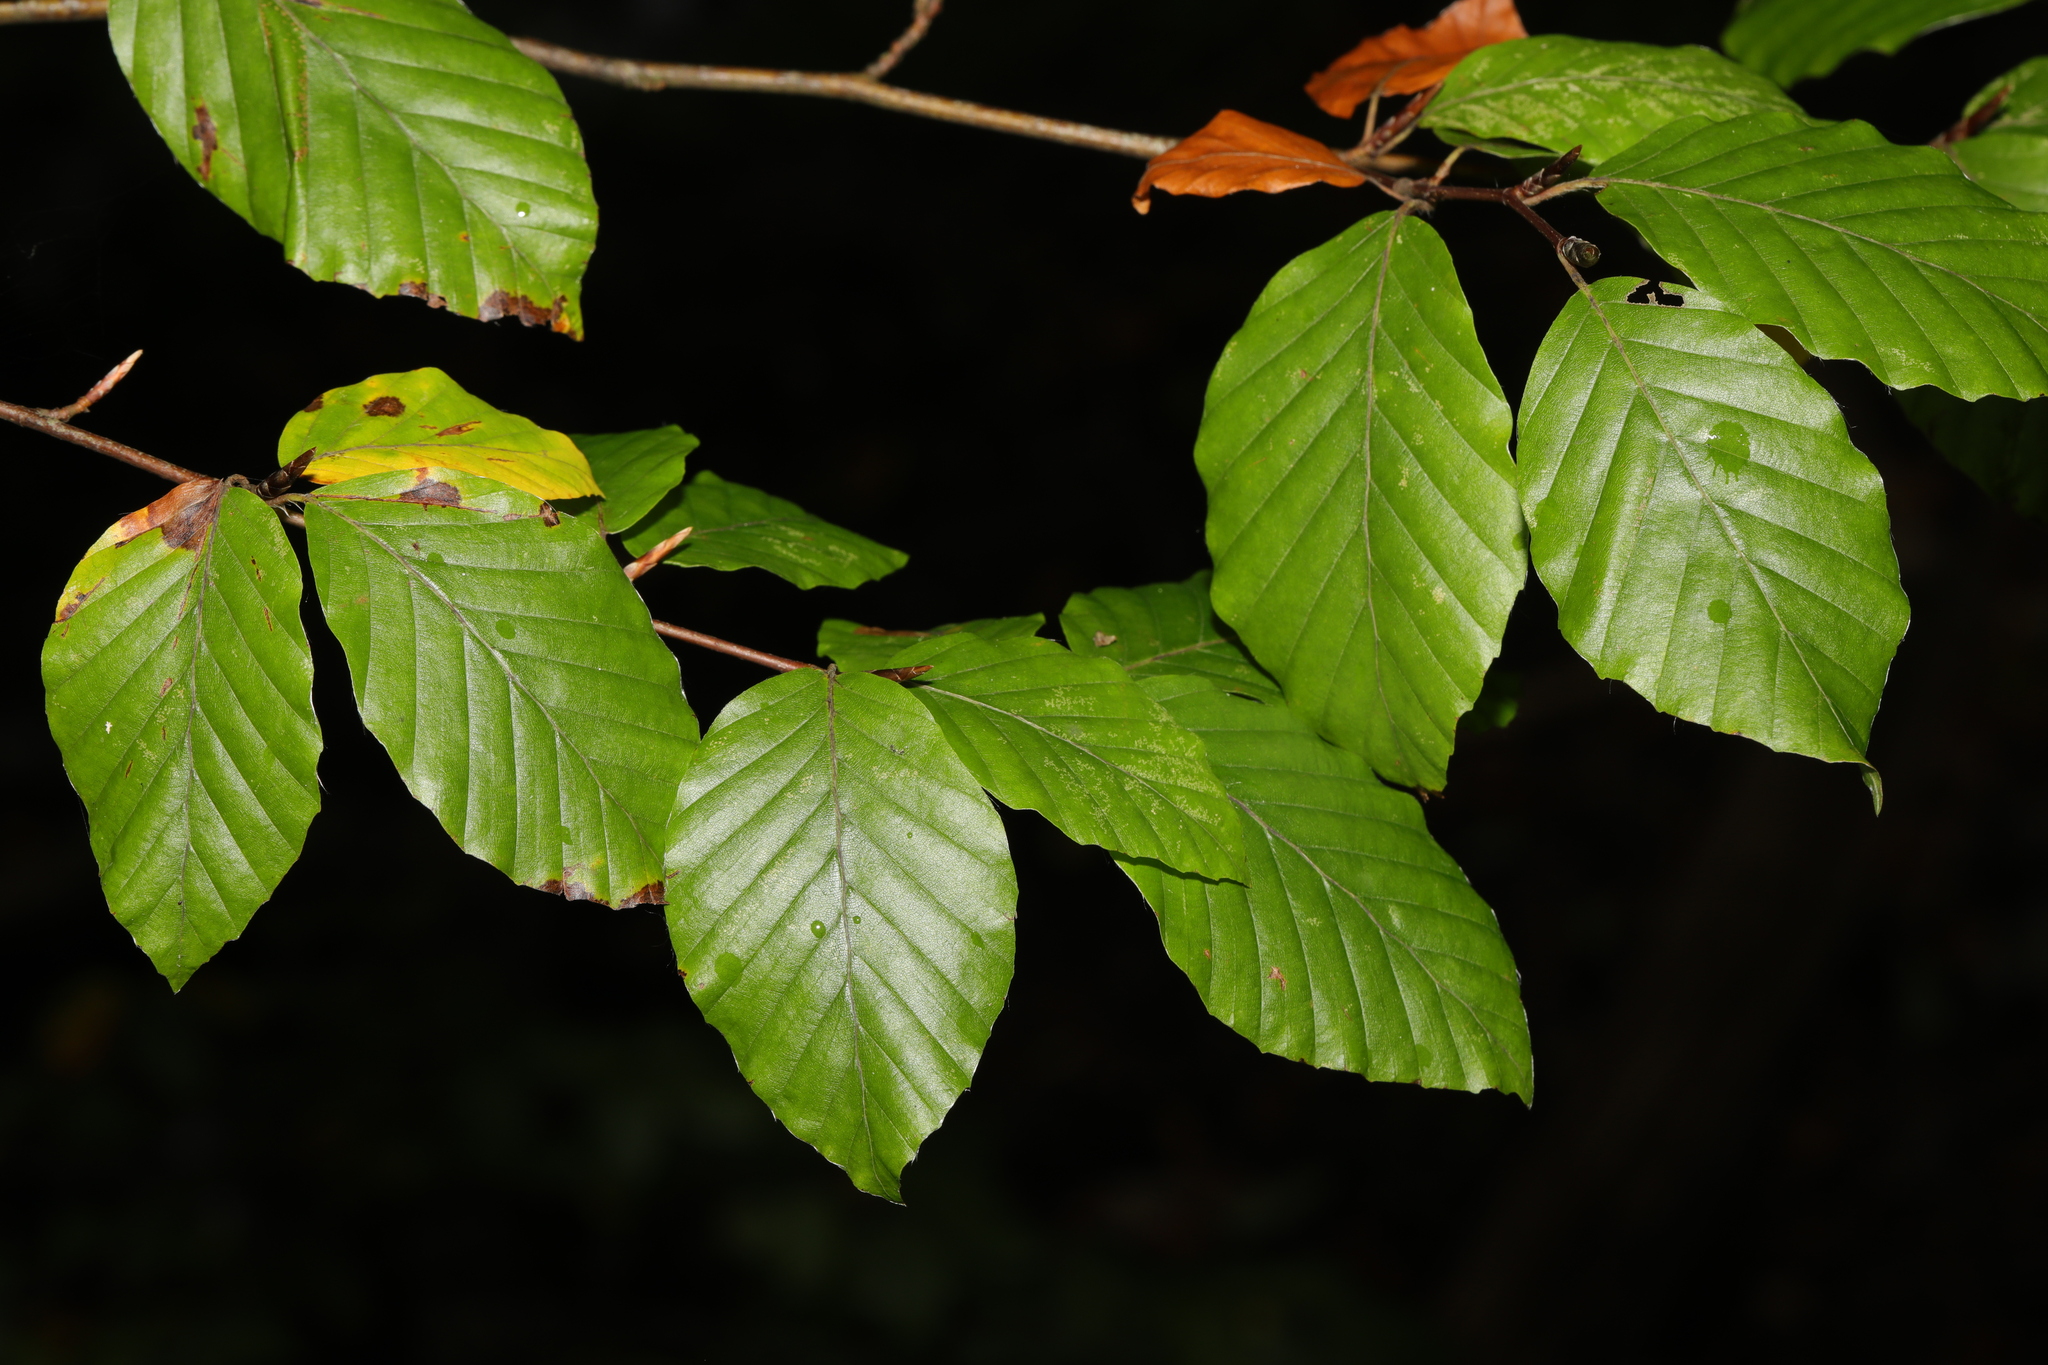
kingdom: Plantae
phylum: Tracheophyta
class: Magnoliopsida
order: Fagales
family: Fagaceae
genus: Fagus
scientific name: Fagus sylvatica
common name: Beech
